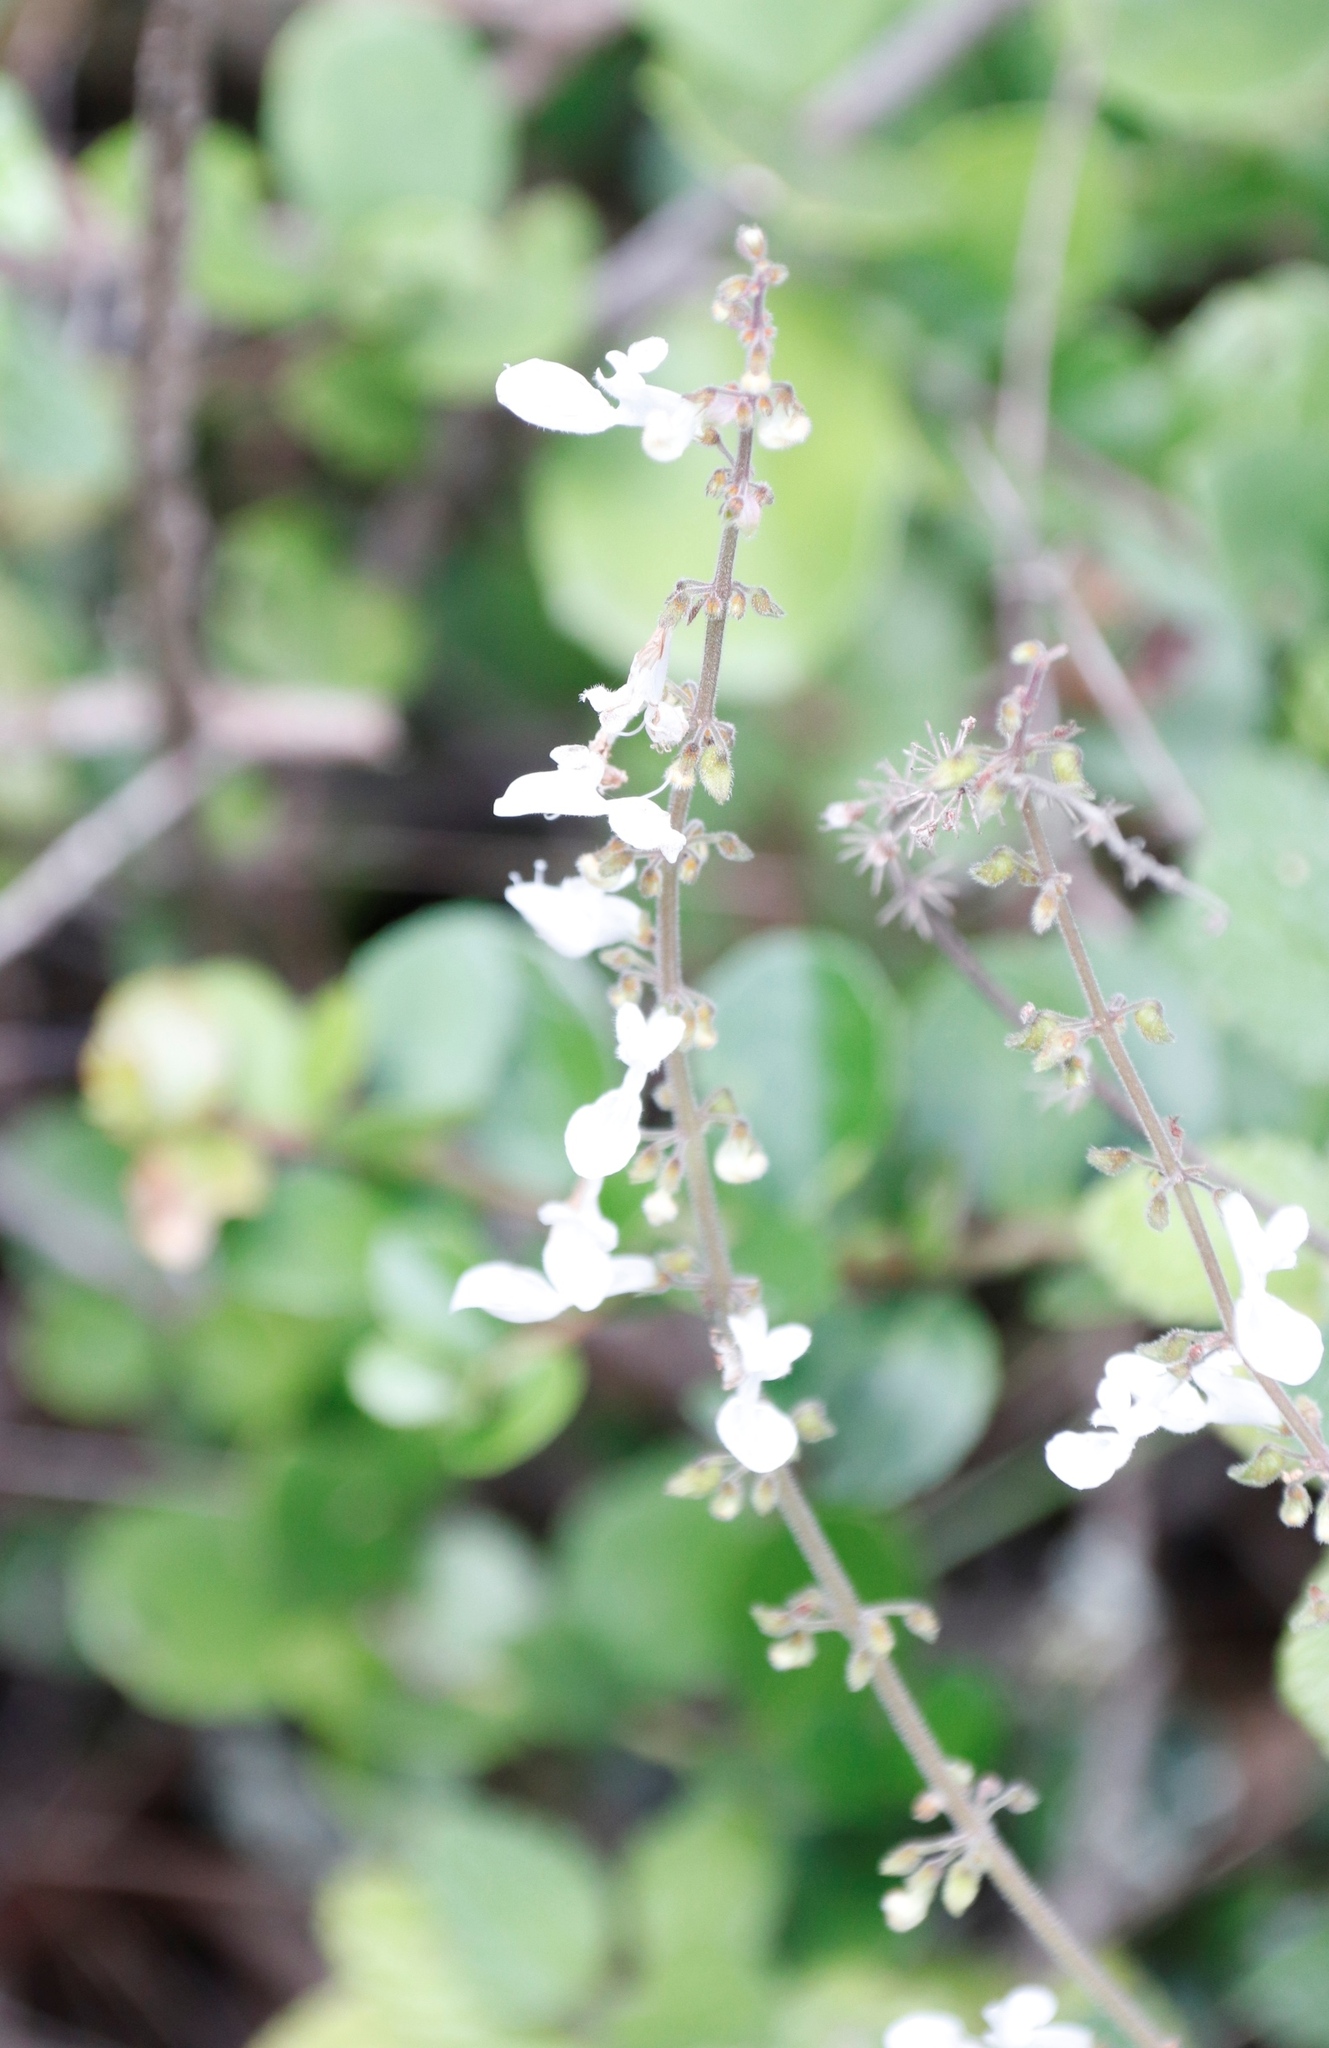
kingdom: Plantae
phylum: Tracheophyta
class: Magnoliopsida
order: Lamiales
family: Lamiaceae
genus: Coleus
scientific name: Coleus madagascariensis
